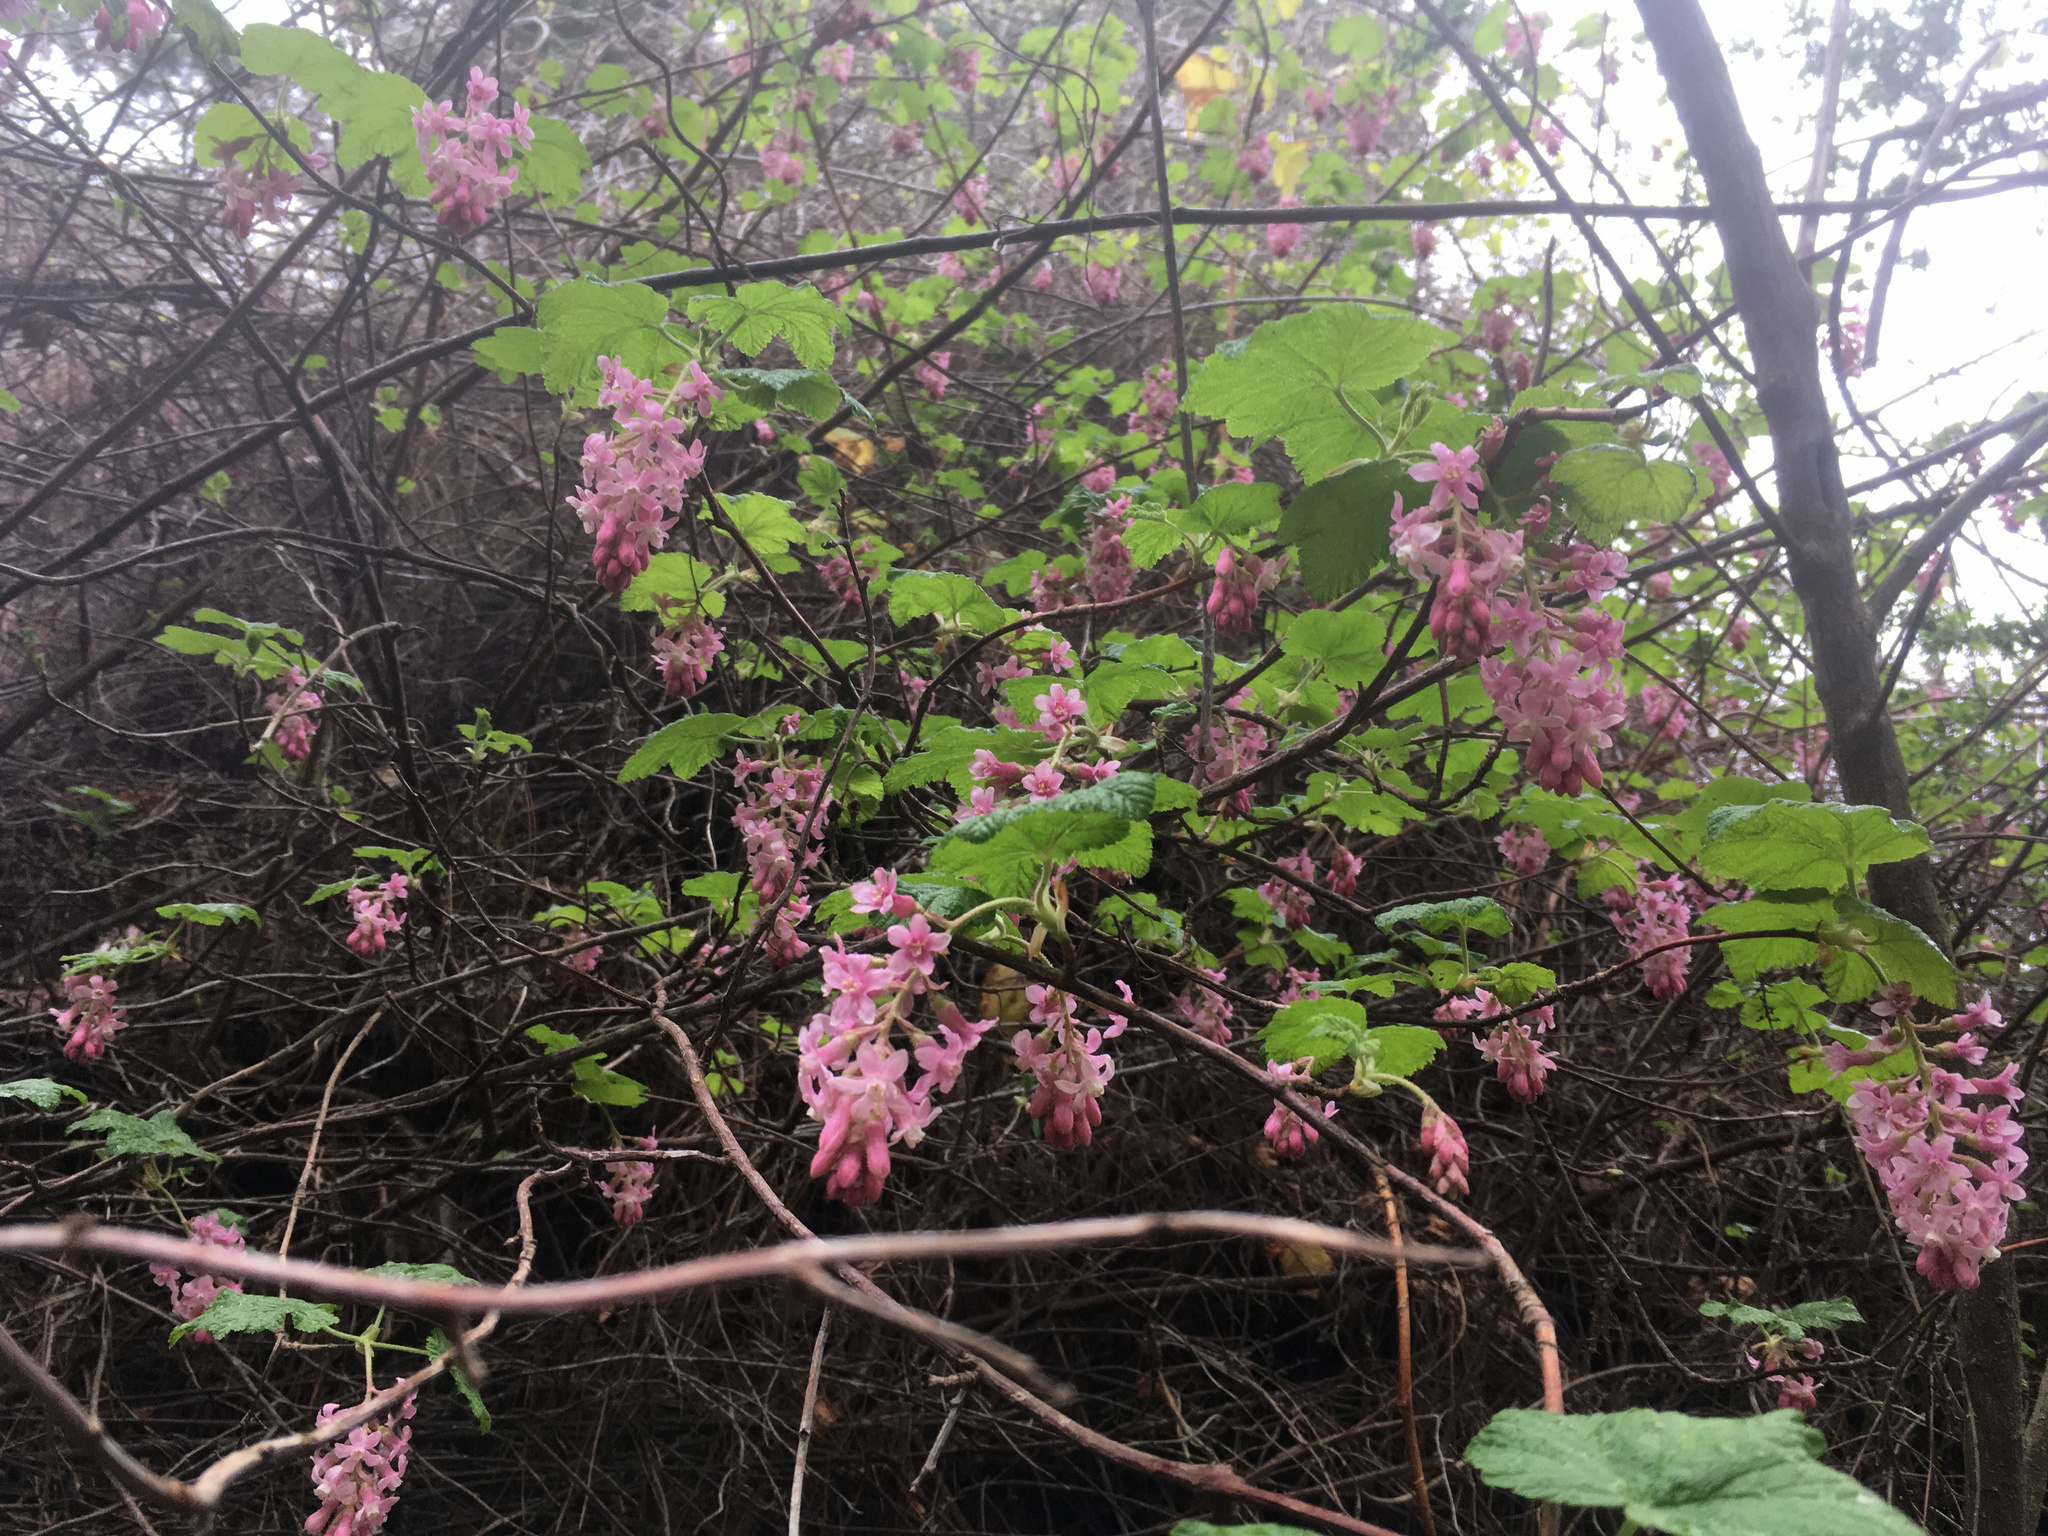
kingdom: Plantae
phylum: Tracheophyta
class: Magnoliopsida
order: Saxifragales
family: Grossulariaceae
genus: Ribes
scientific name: Ribes sanguineum
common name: Flowering currant
